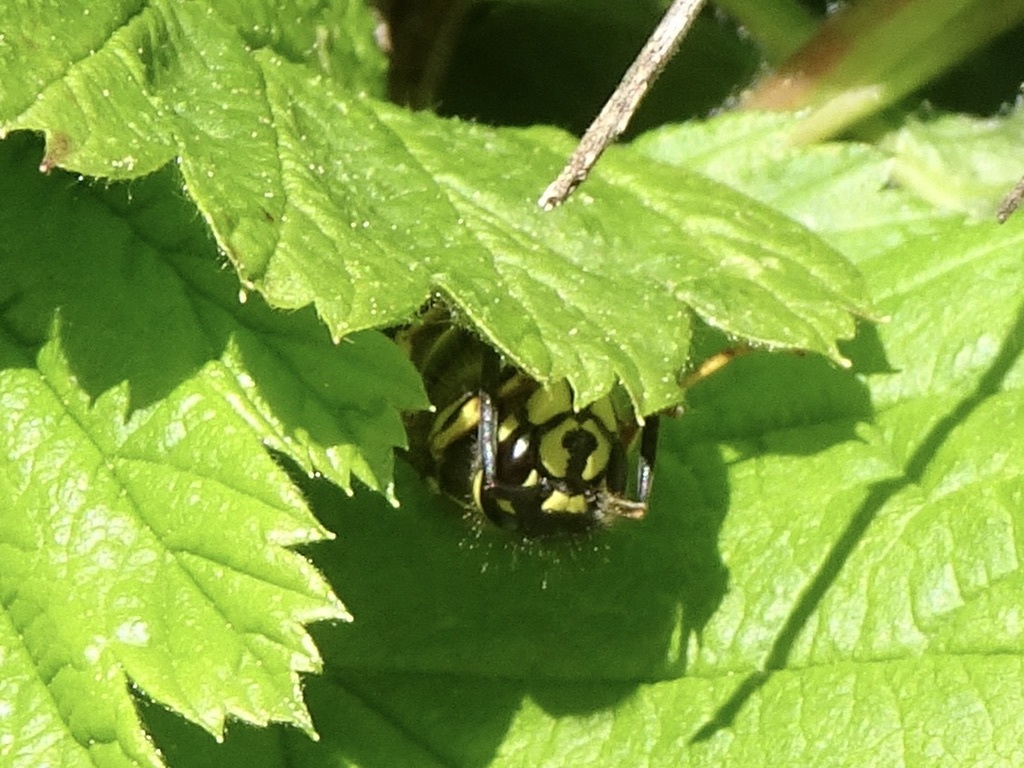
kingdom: Animalia
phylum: Arthropoda
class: Insecta
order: Hymenoptera
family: Vespidae
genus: Vespula
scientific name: Vespula alascensis
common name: Alaska yellowjacket
